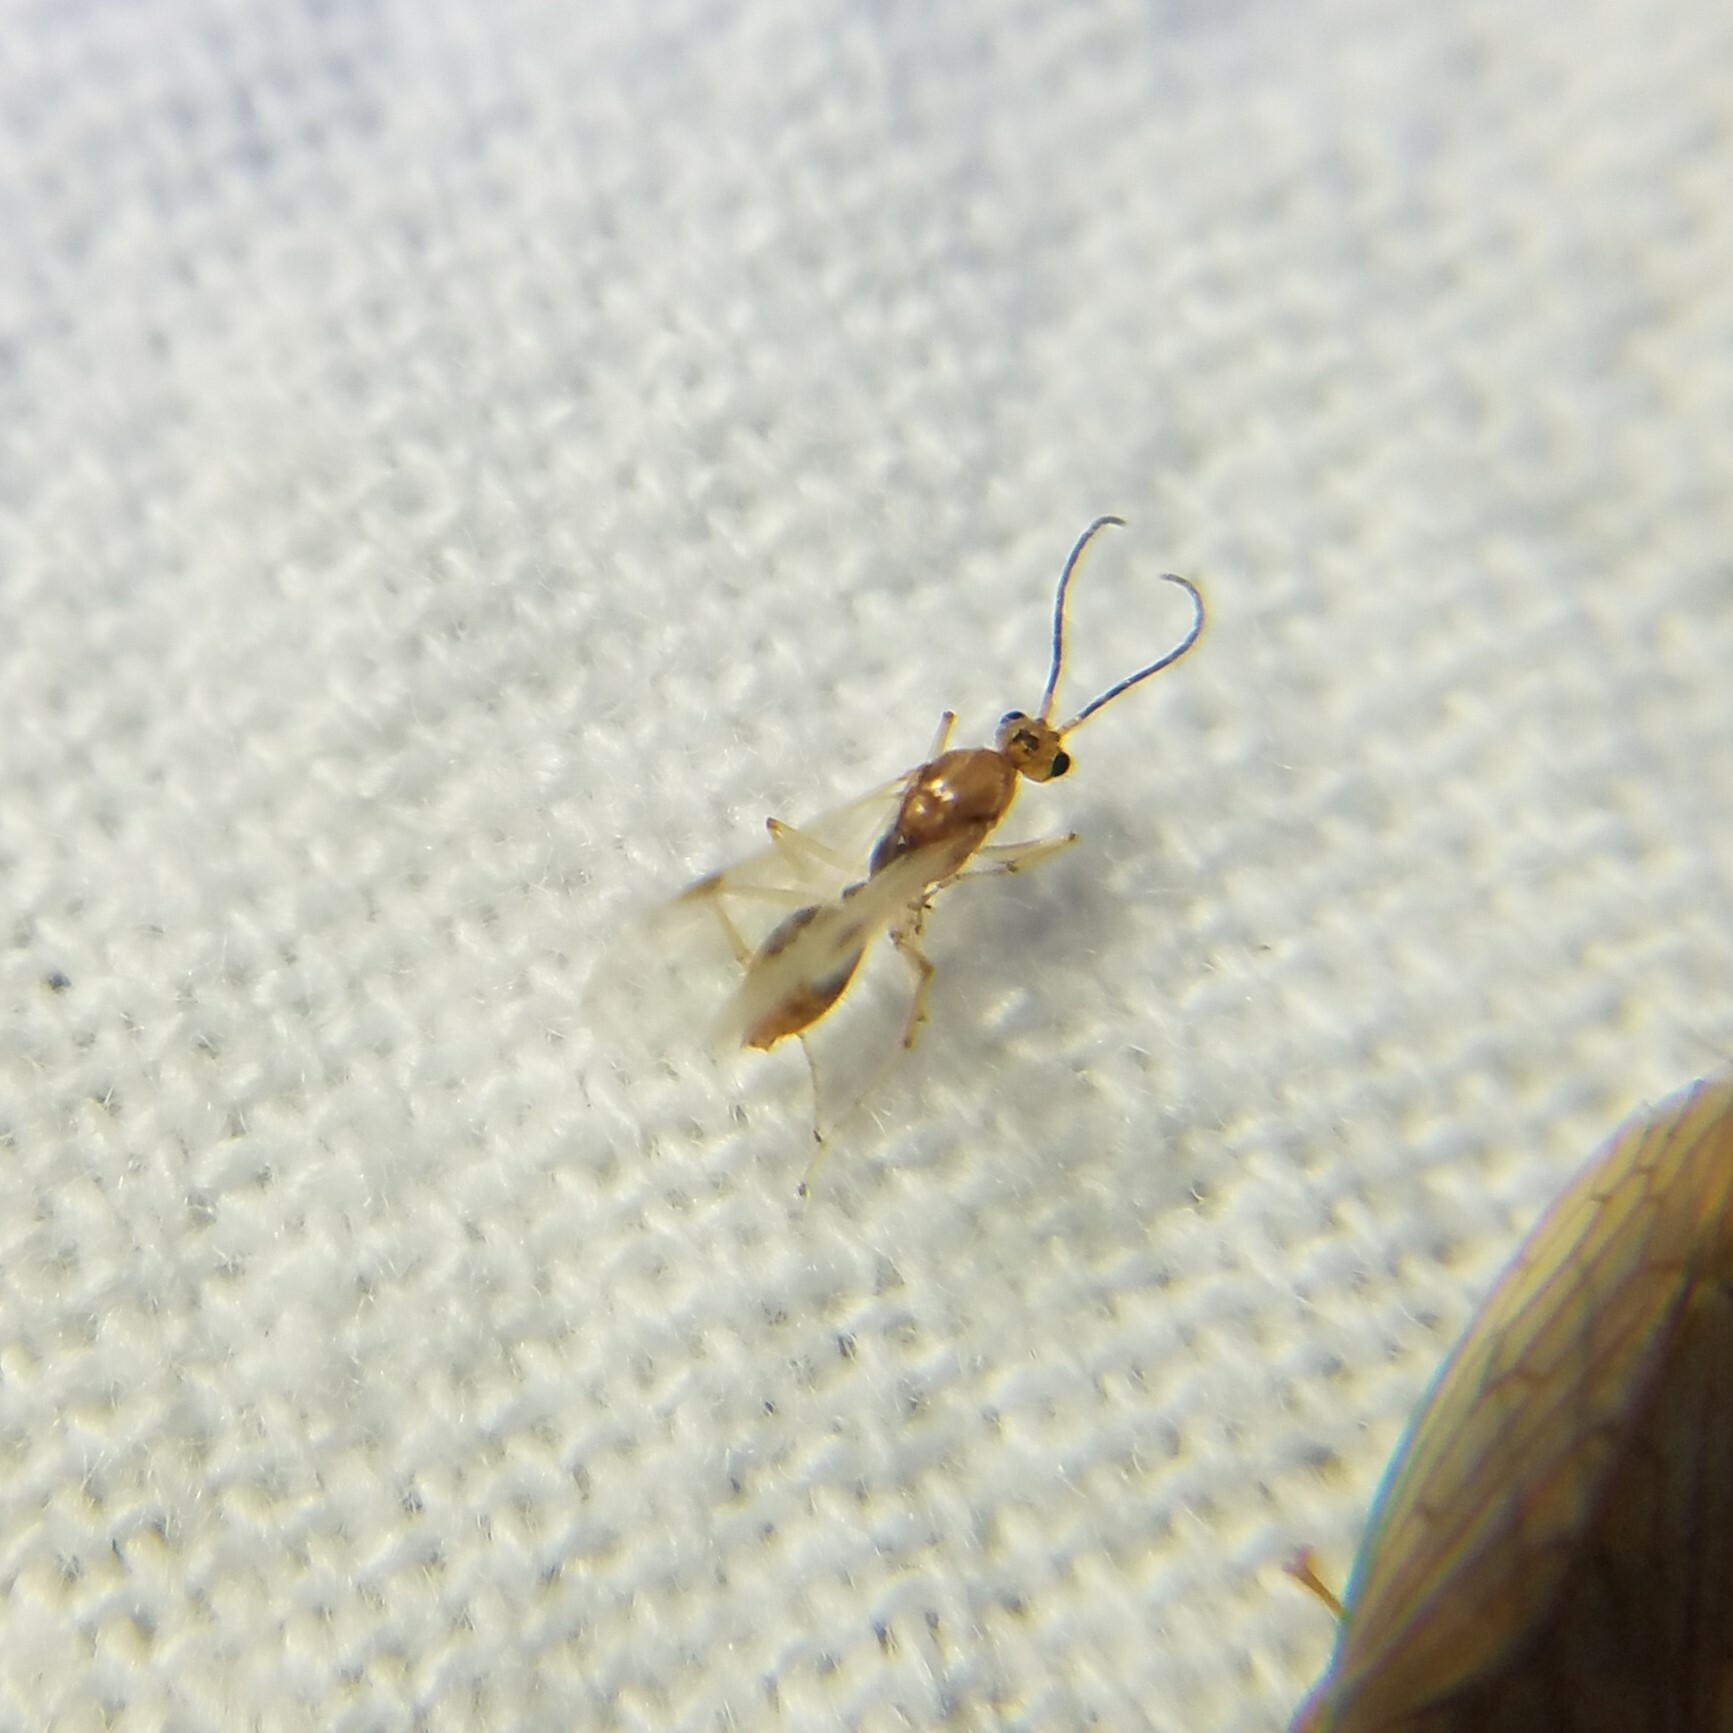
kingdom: Animalia
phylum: Arthropoda
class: Insecta
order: Hymenoptera
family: Formicidae
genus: Pachycondyla
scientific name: Pachycondyla chinensis
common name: Asian needle ant
